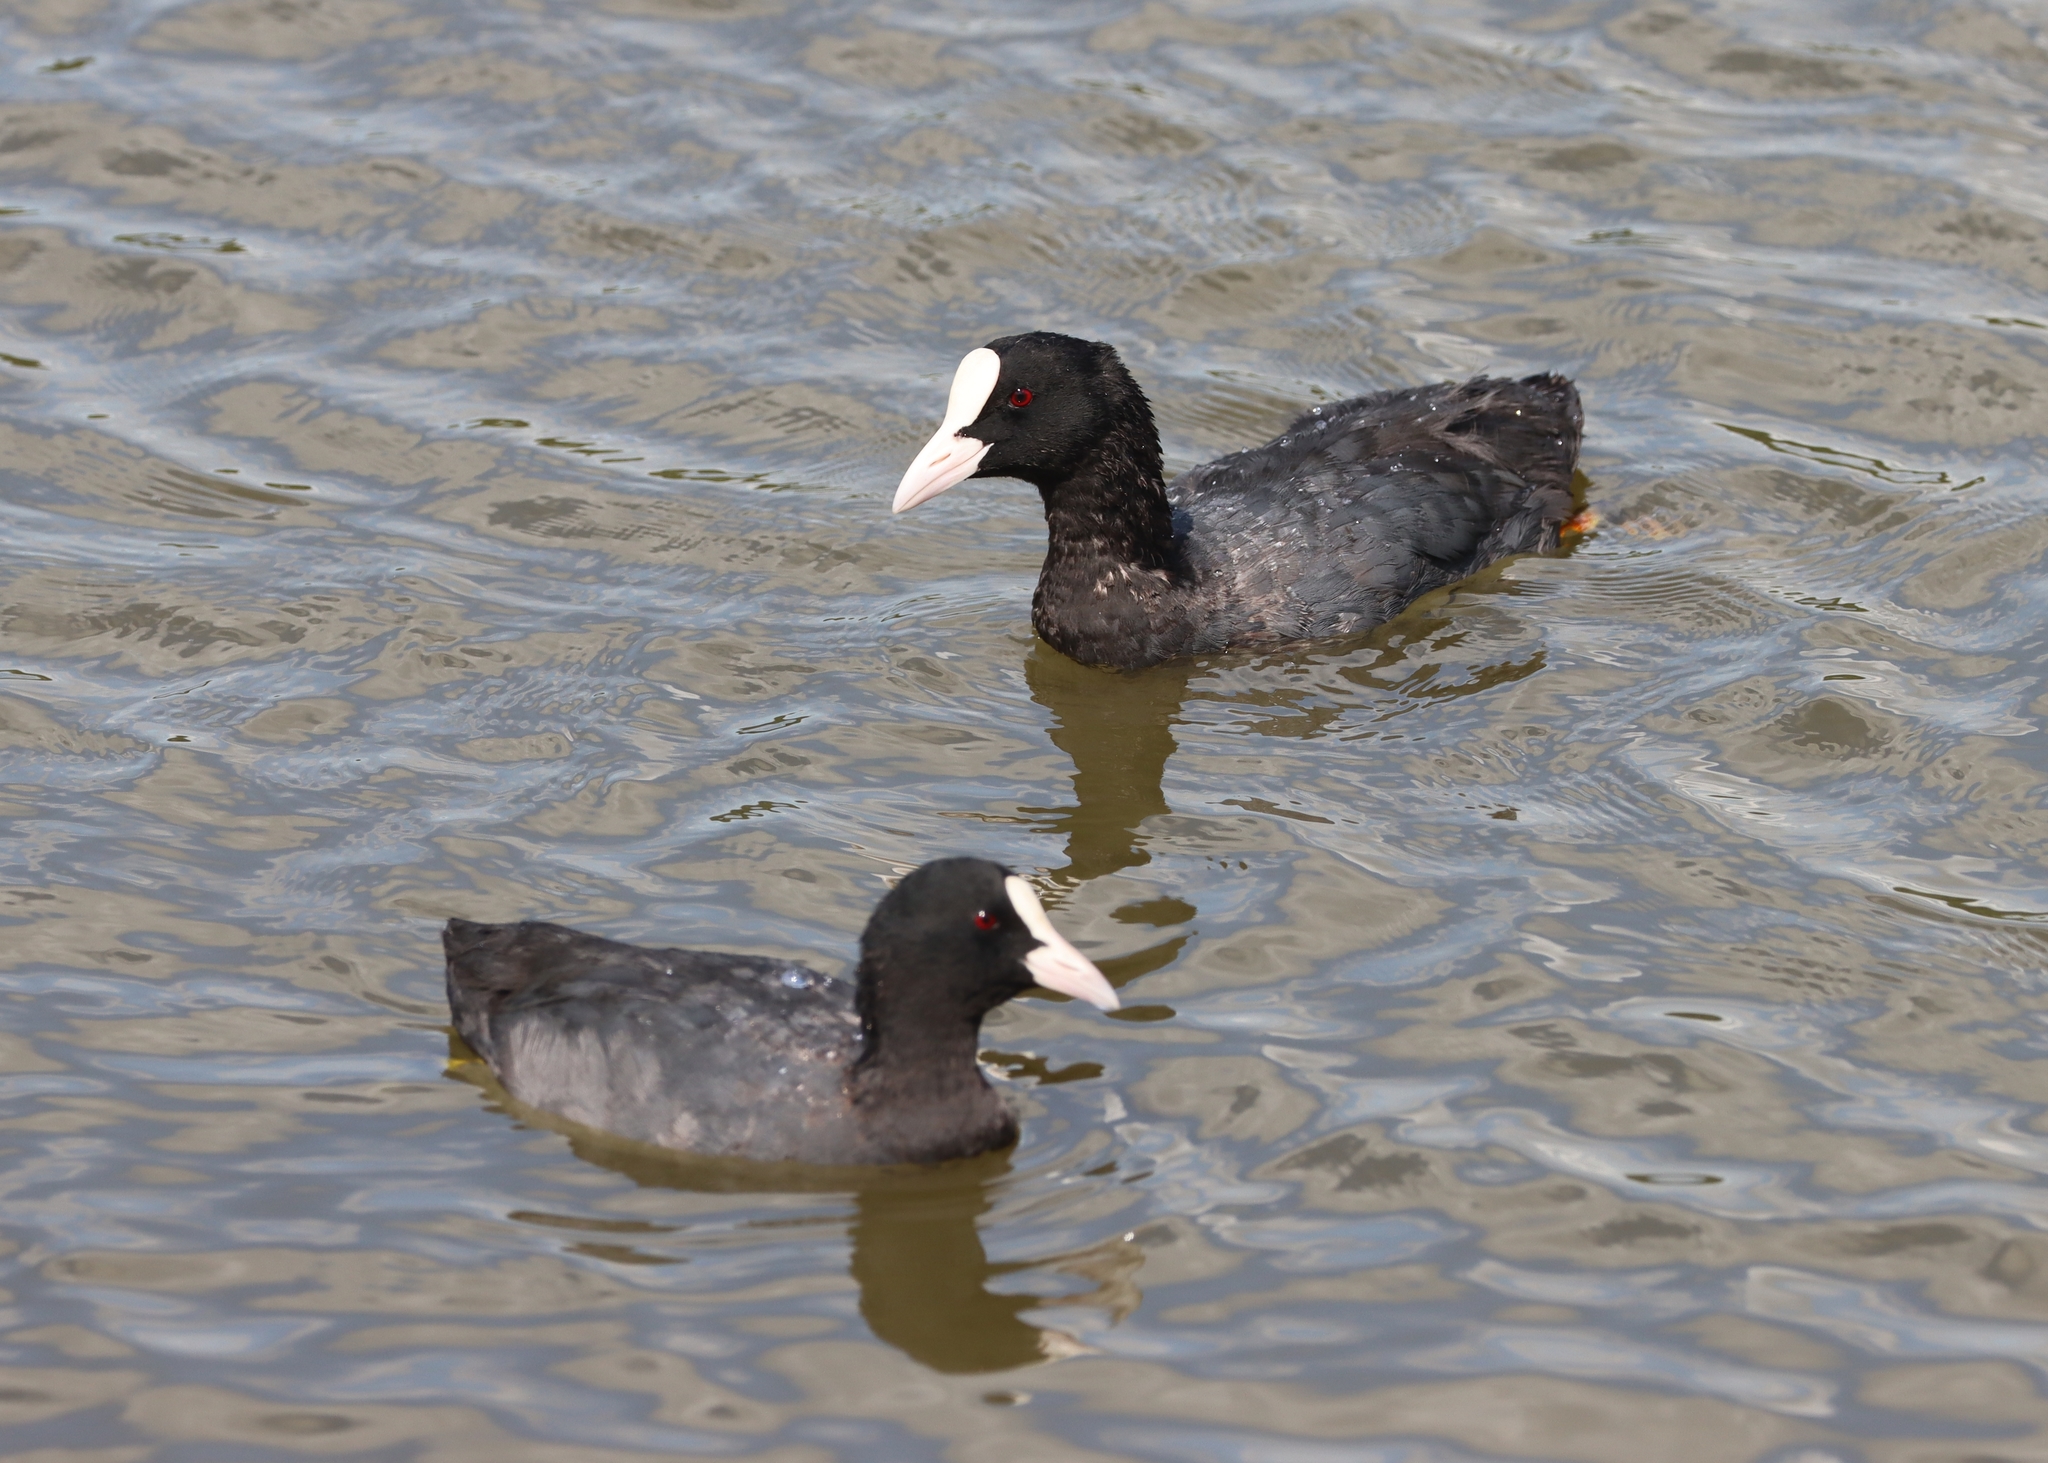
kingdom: Animalia
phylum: Chordata
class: Aves
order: Gruiformes
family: Rallidae
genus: Fulica
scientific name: Fulica atra
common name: Eurasian coot
